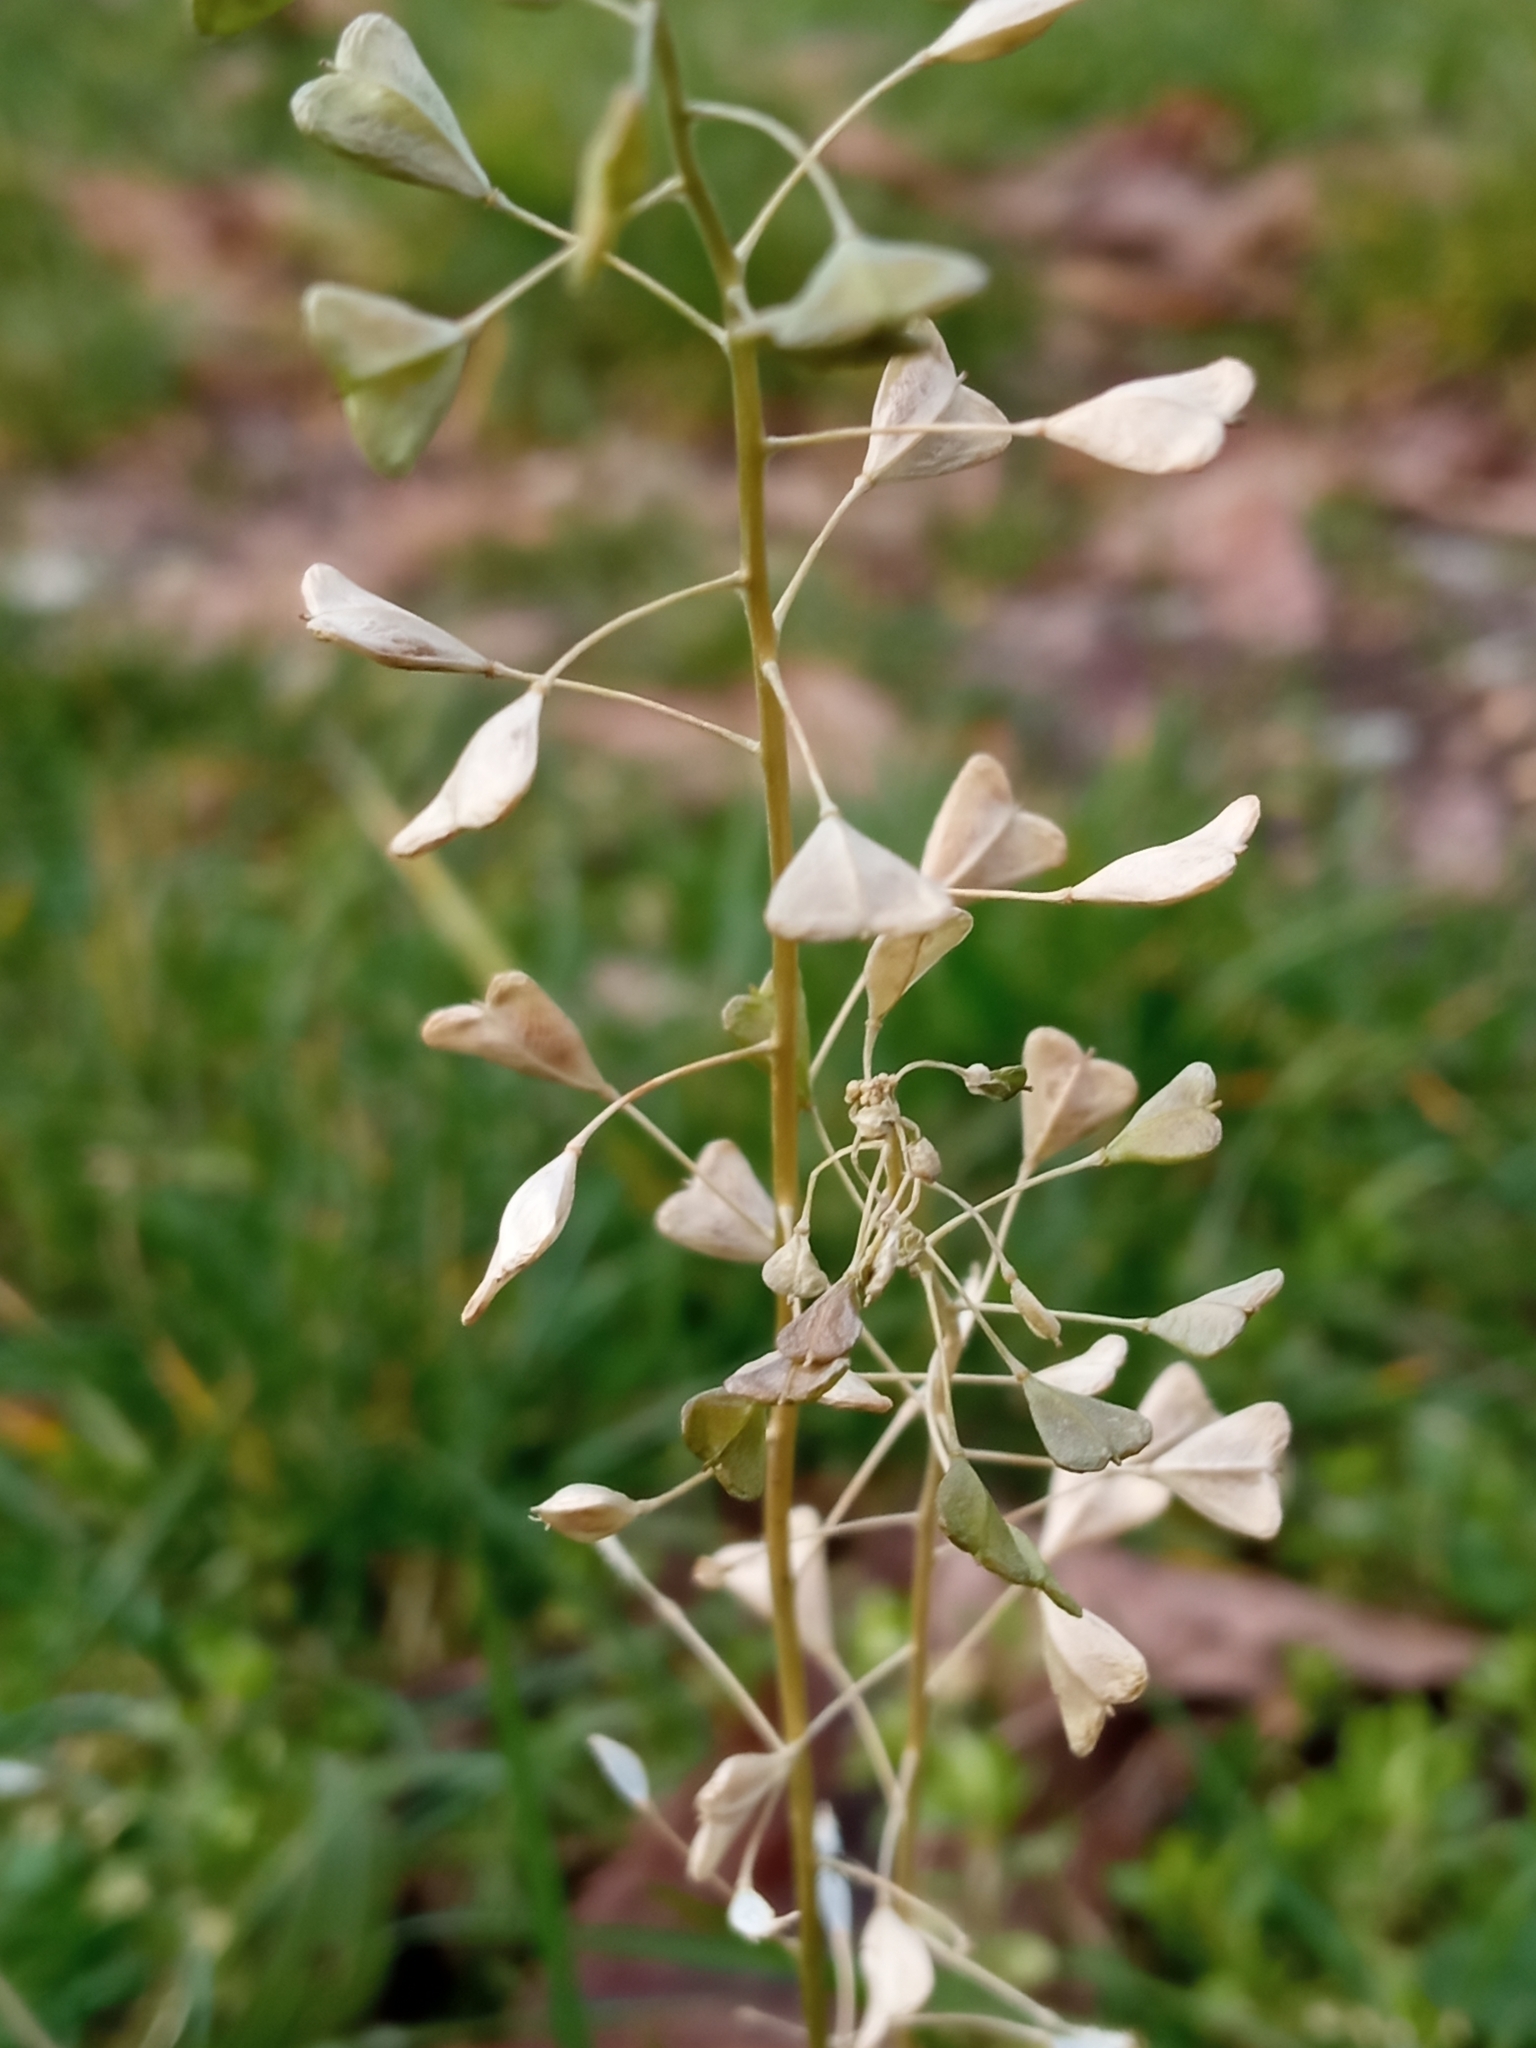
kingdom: Plantae
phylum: Tracheophyta
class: Magnoliopsida
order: Brassicales
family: Brassicaceae
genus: Capsella
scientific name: Capsella bursa-pastoris
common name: Shepherd's purse
